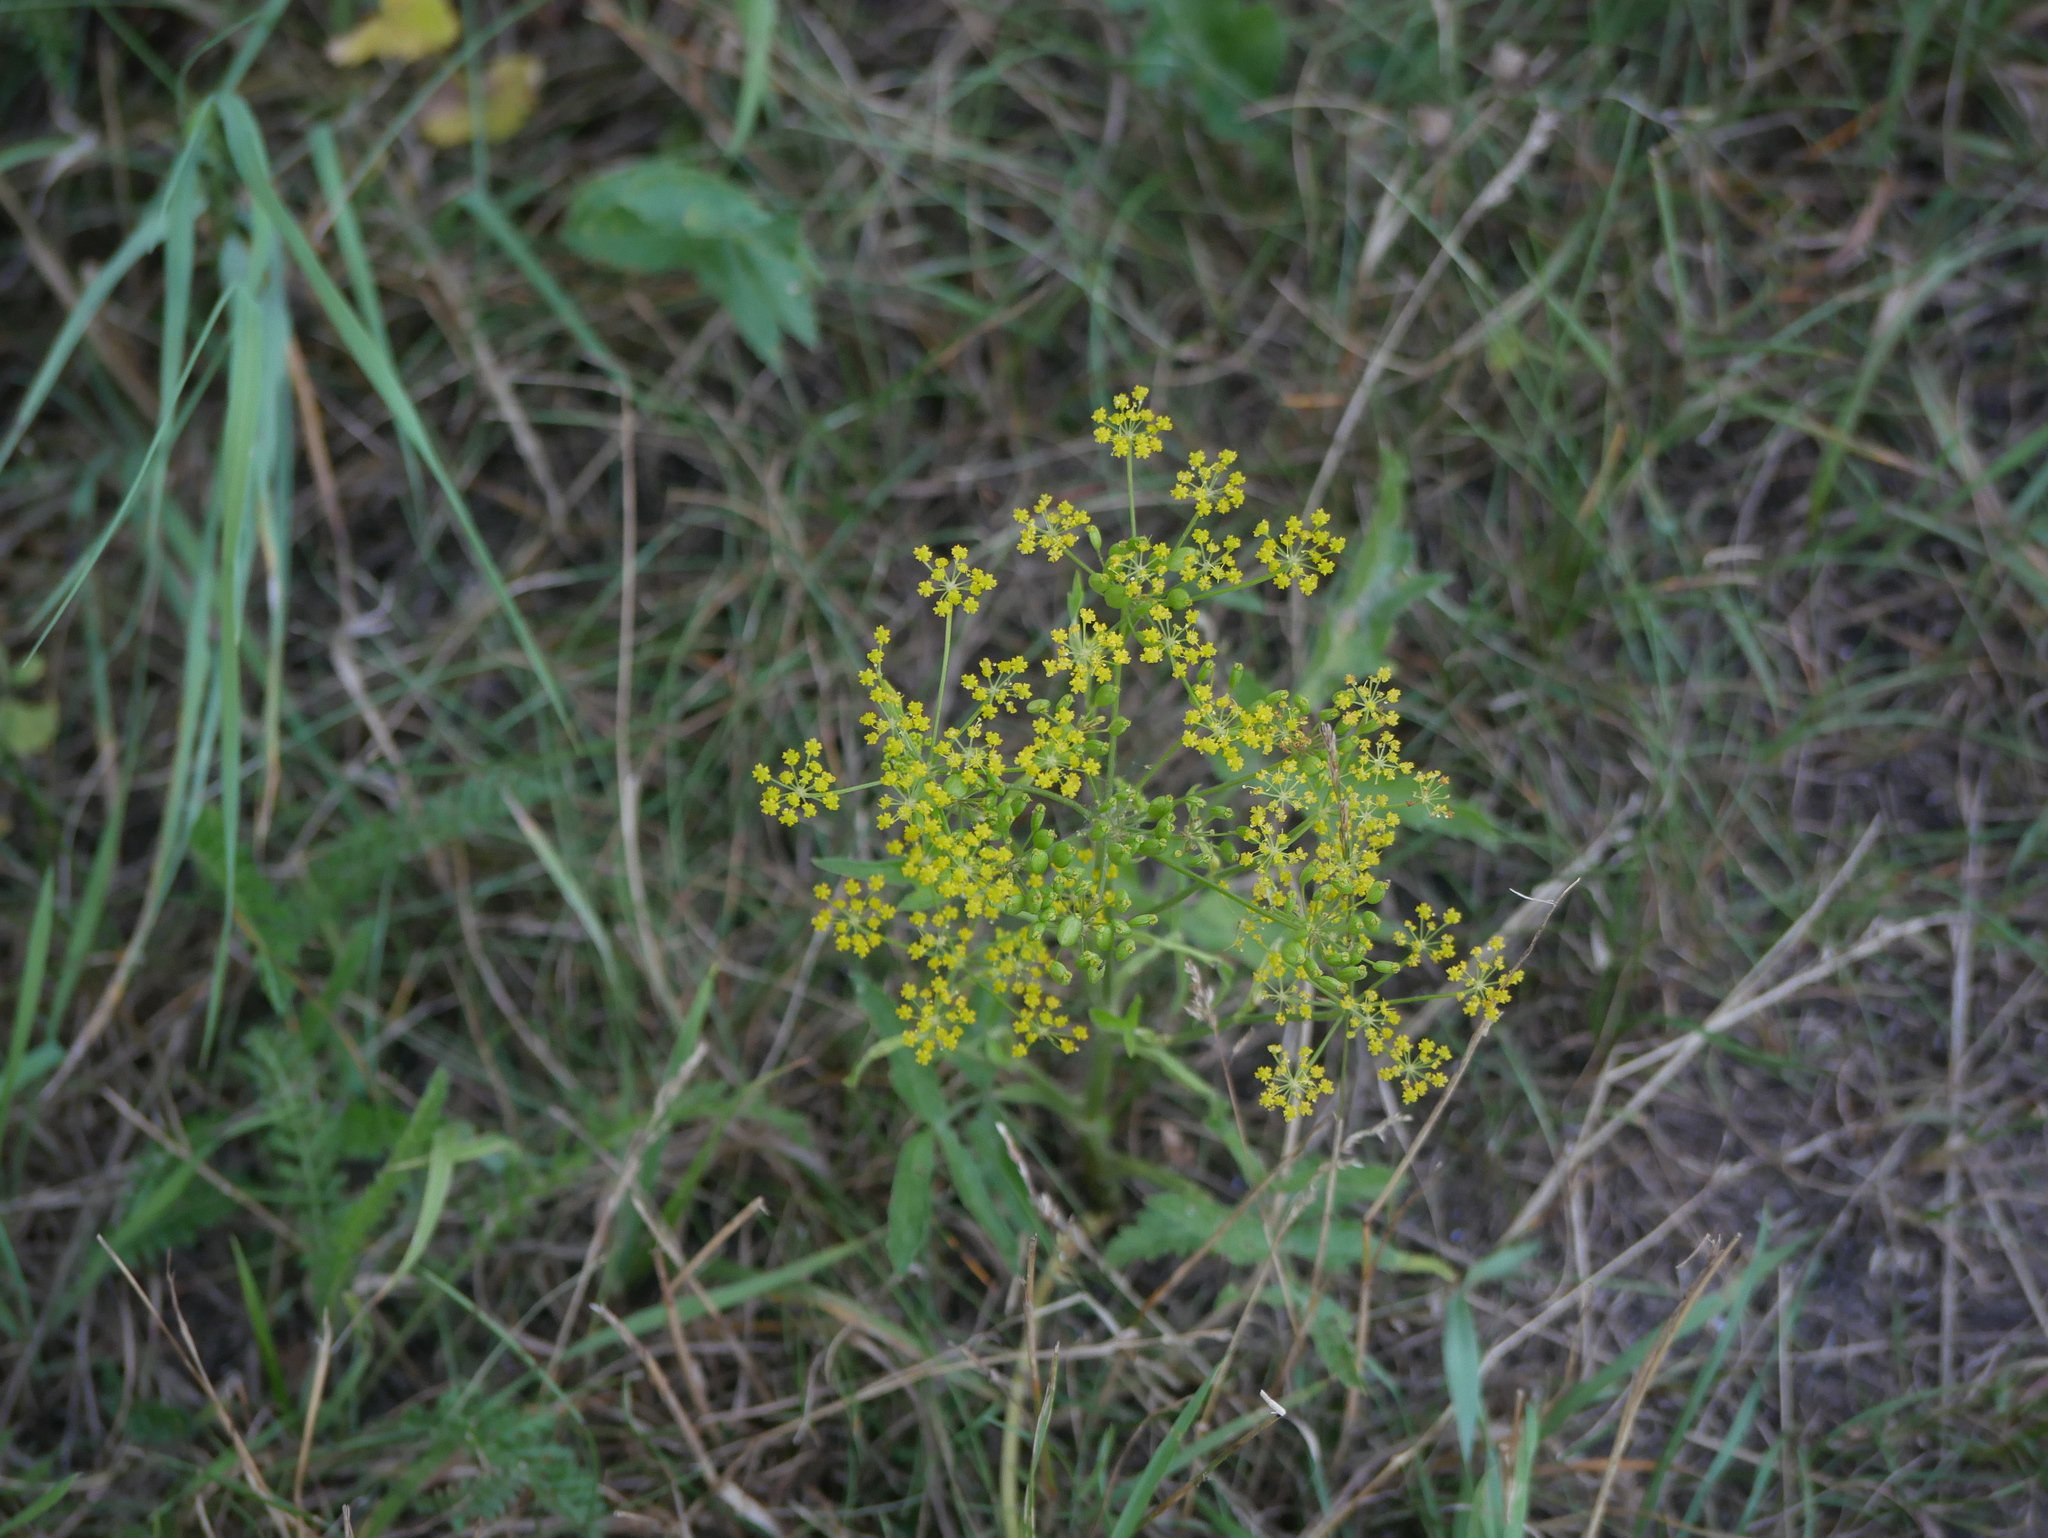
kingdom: Plantae
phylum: Tracheophyta
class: Magnoliopsida
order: Apiales
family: Apiaceae
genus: Pastinaca
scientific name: Pastinaca sativa
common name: Wild parsnip
